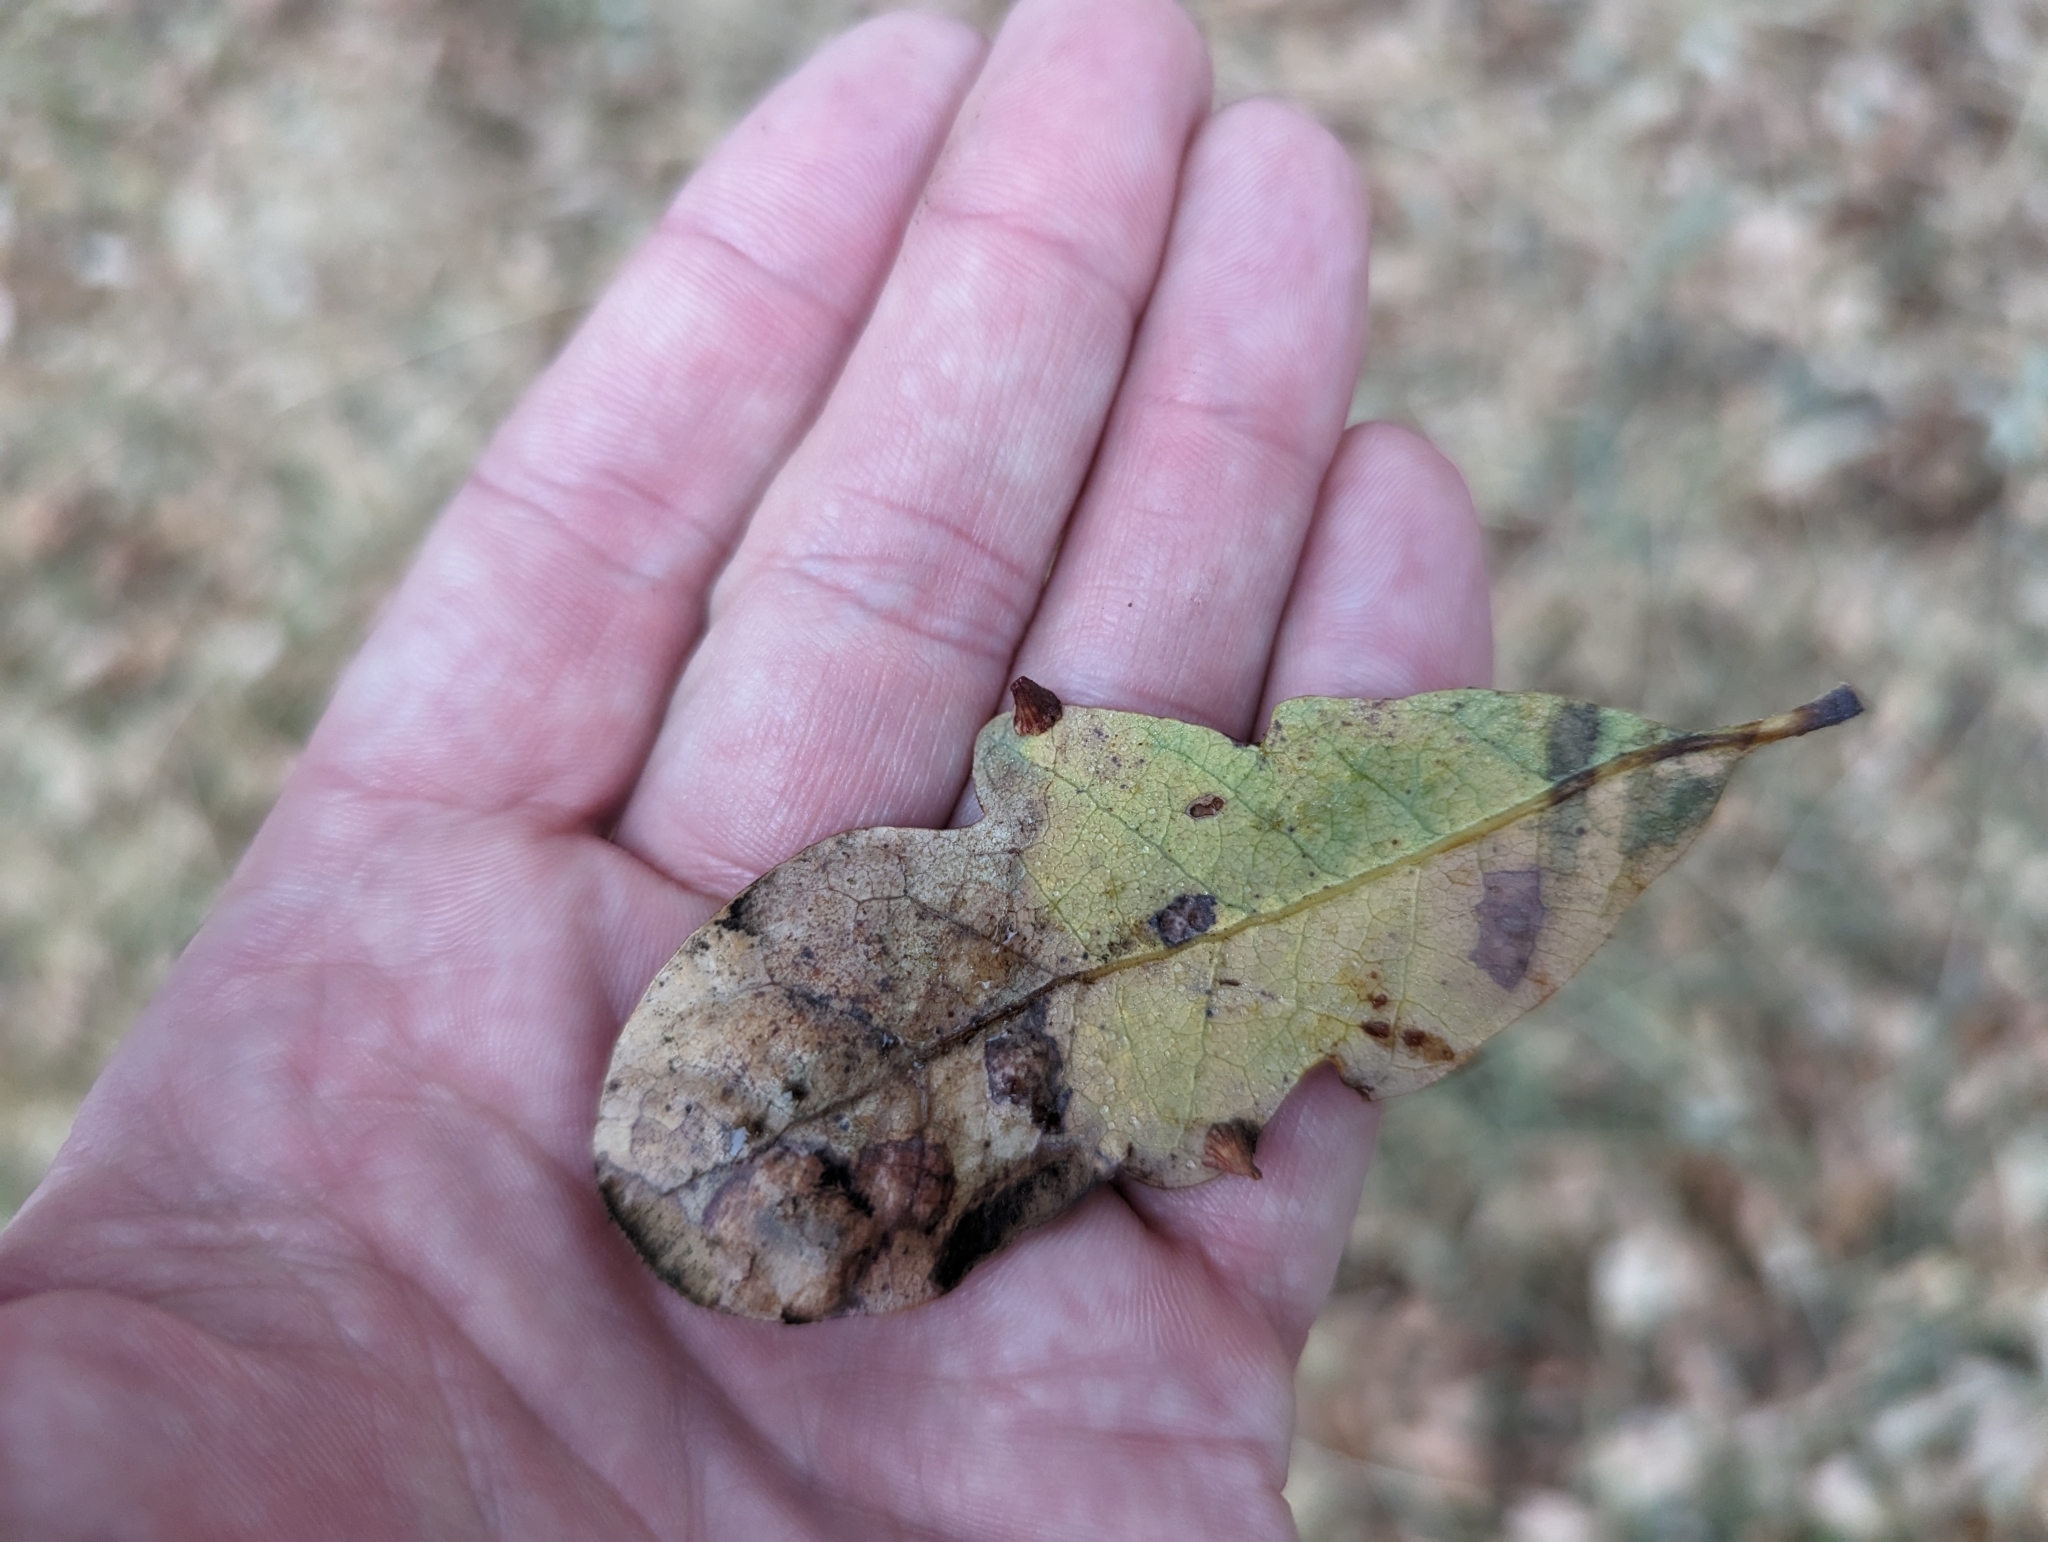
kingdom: Animalia
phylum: Arthropoda
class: Insecta
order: Hymenoptera
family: Cynipidae
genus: Andricus
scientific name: Andricus
